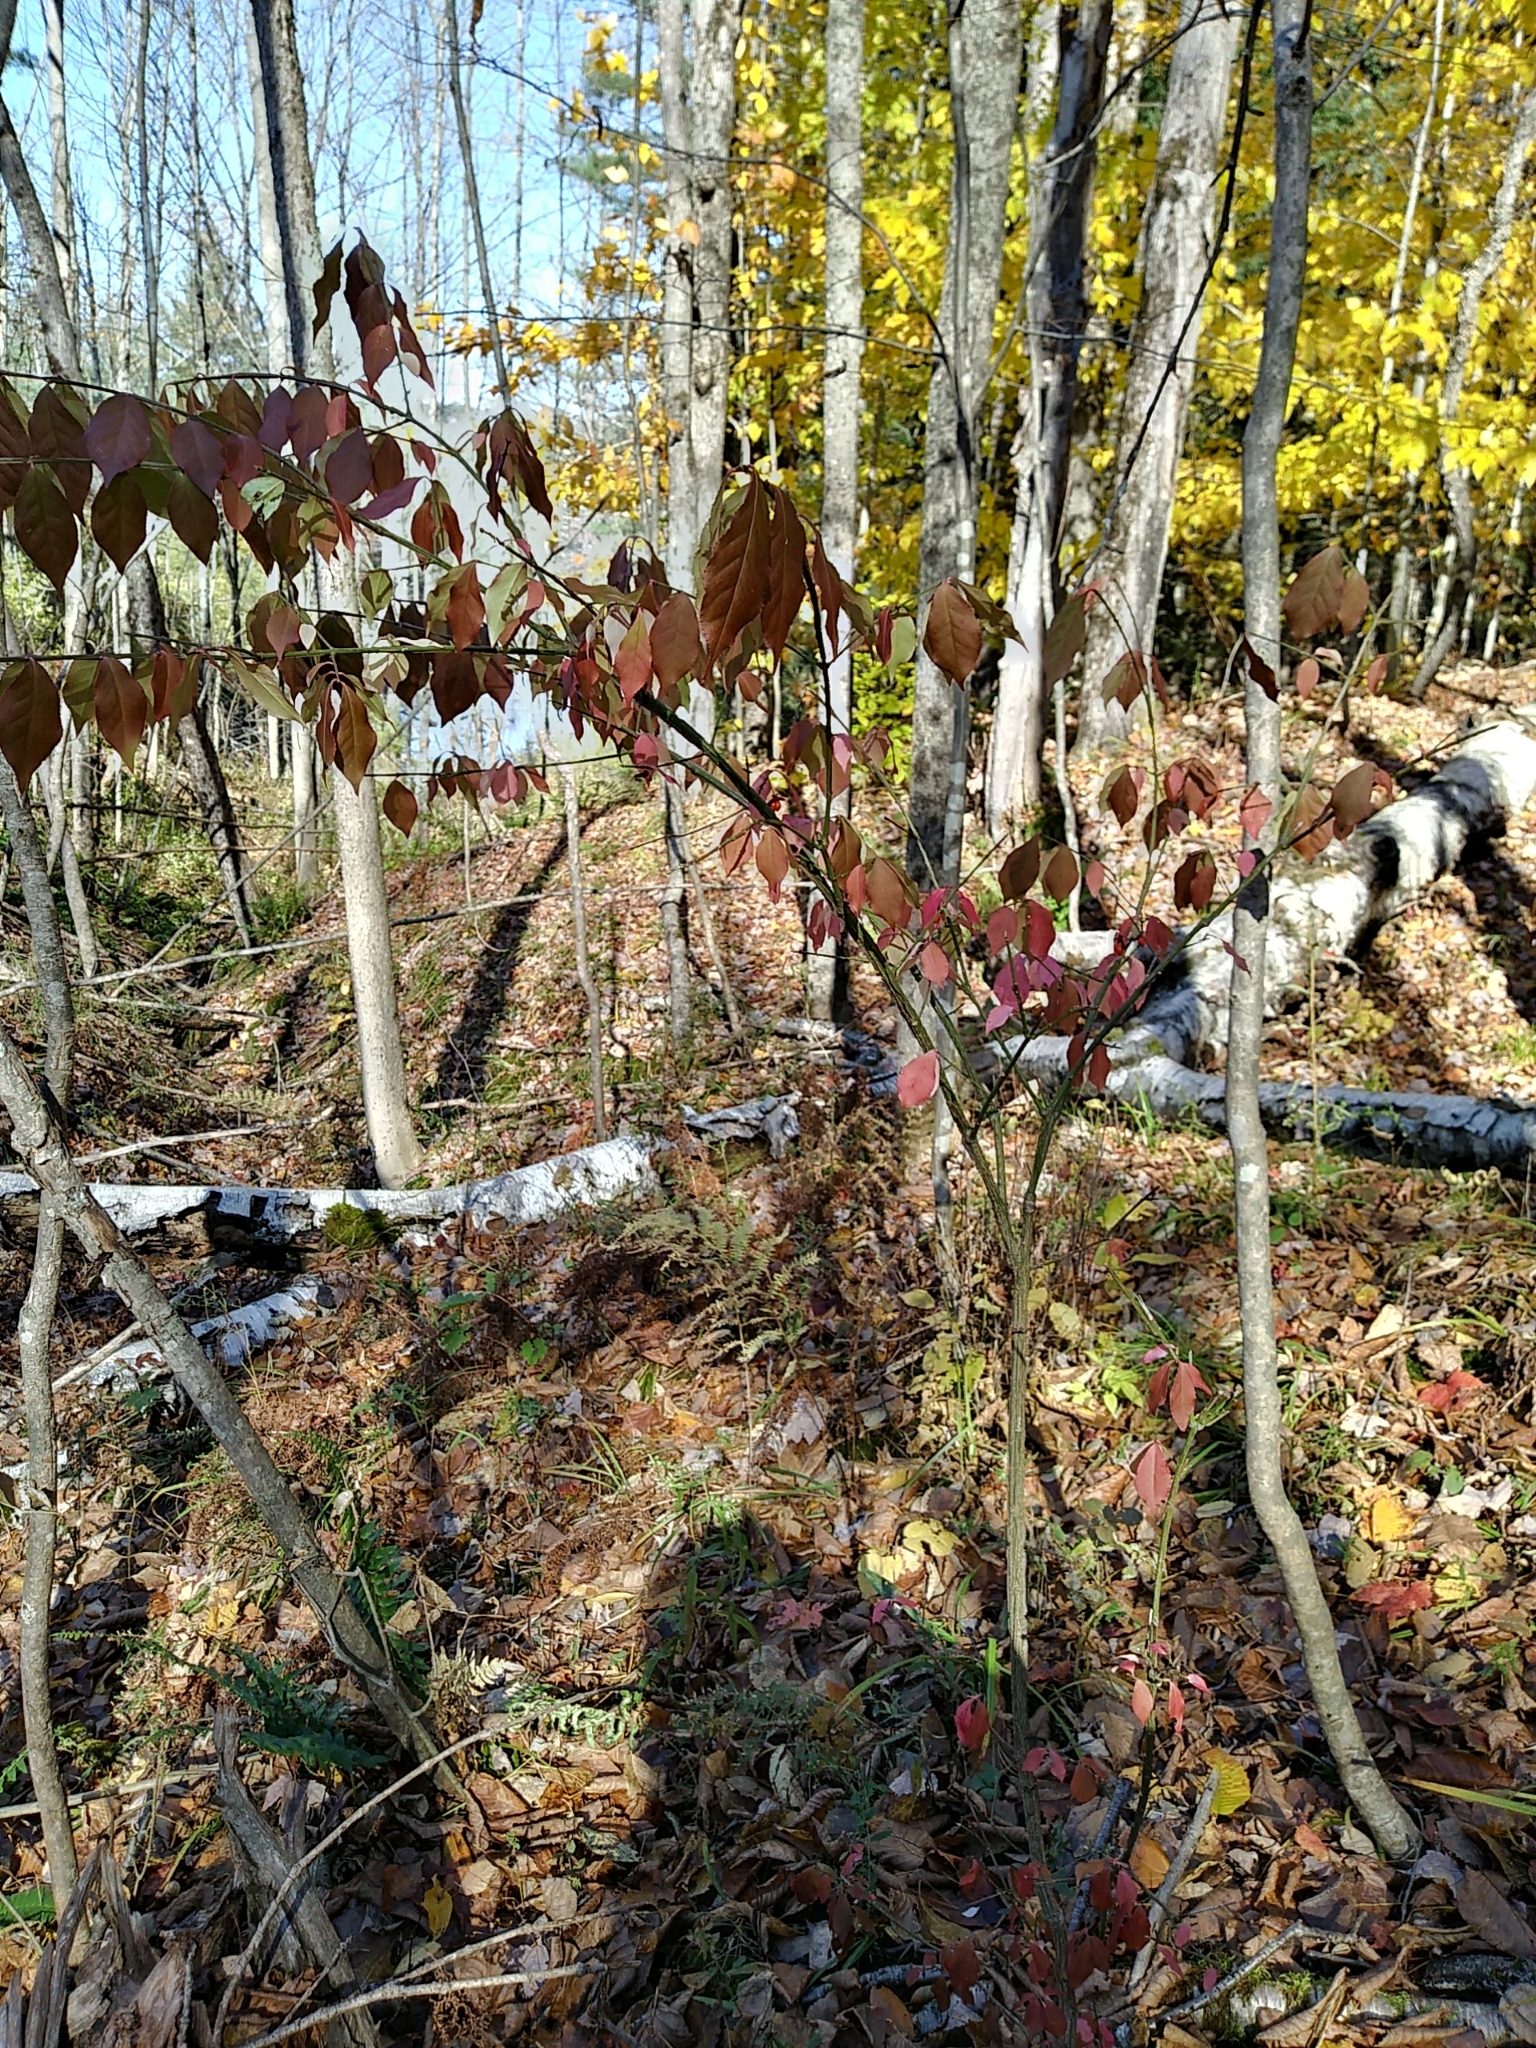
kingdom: Plantae
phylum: Tracheophyta
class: Magnoliopsida
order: Celastrales
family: Celastraceae
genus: Euonymus
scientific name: Euonymus alatus
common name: Winged euonymus
